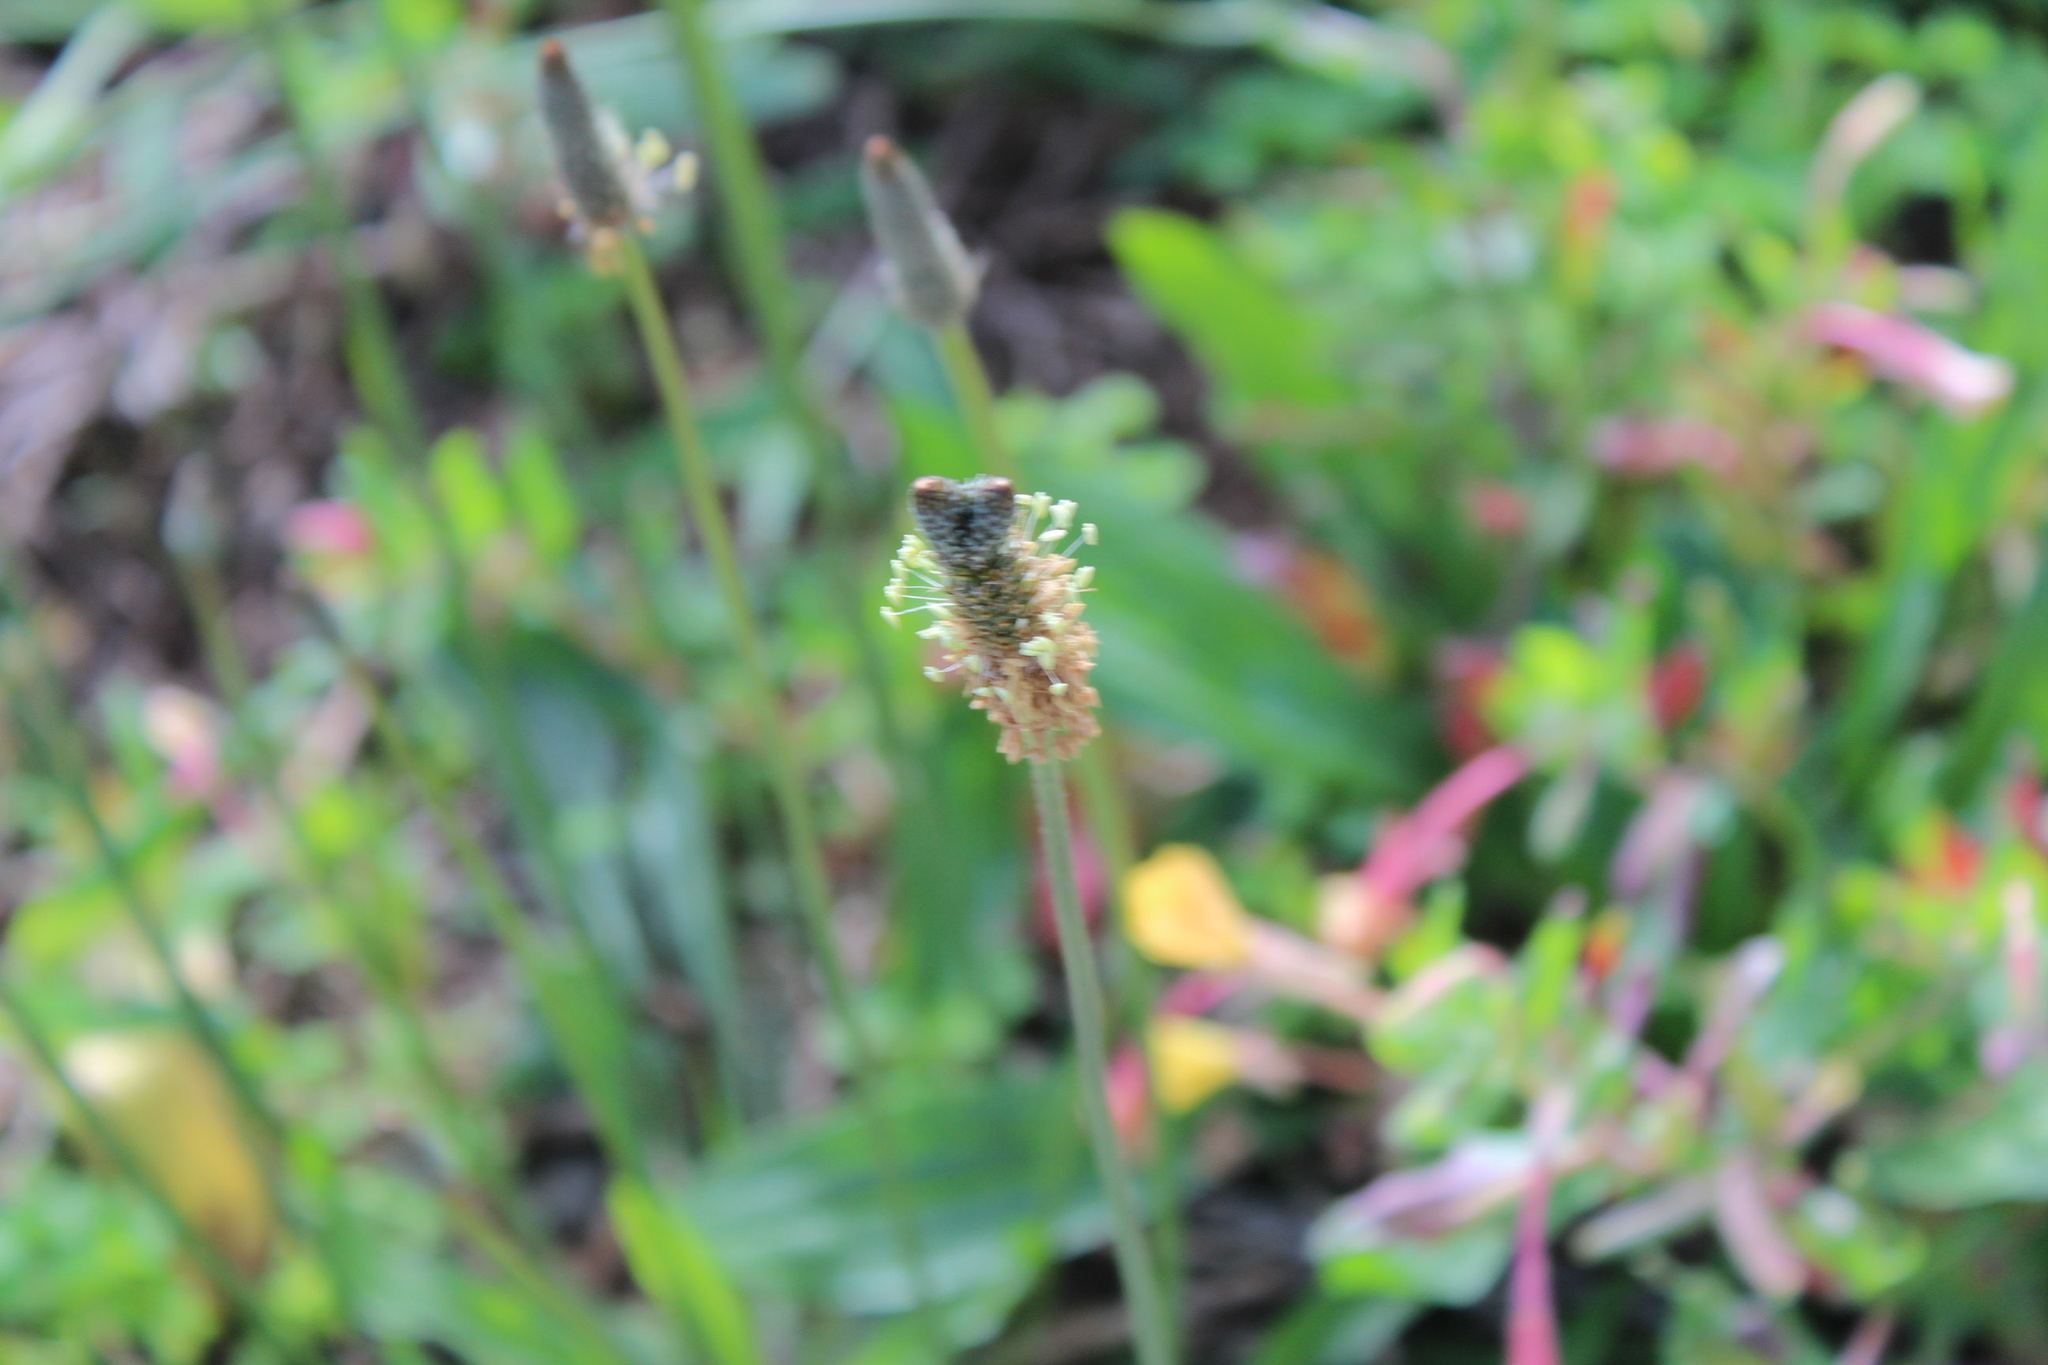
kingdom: Plantae
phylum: Tracheophyta
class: Magnoliopsida
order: Lamiales
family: Plantaginaceae
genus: Plantago
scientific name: Plantago lanceolata
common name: Ribwort plantain
